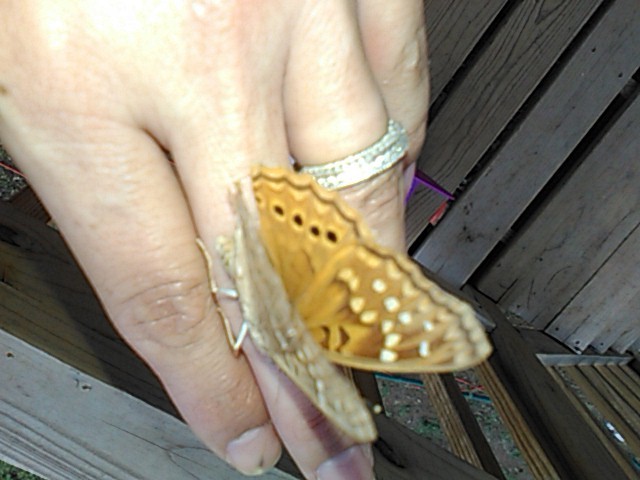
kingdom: Animalia
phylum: Arthropoda
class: Insecta
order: Lepidoptera
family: Nymphalidae
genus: Asterocampa
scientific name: Asterocampa clyton
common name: Tawny emperor
